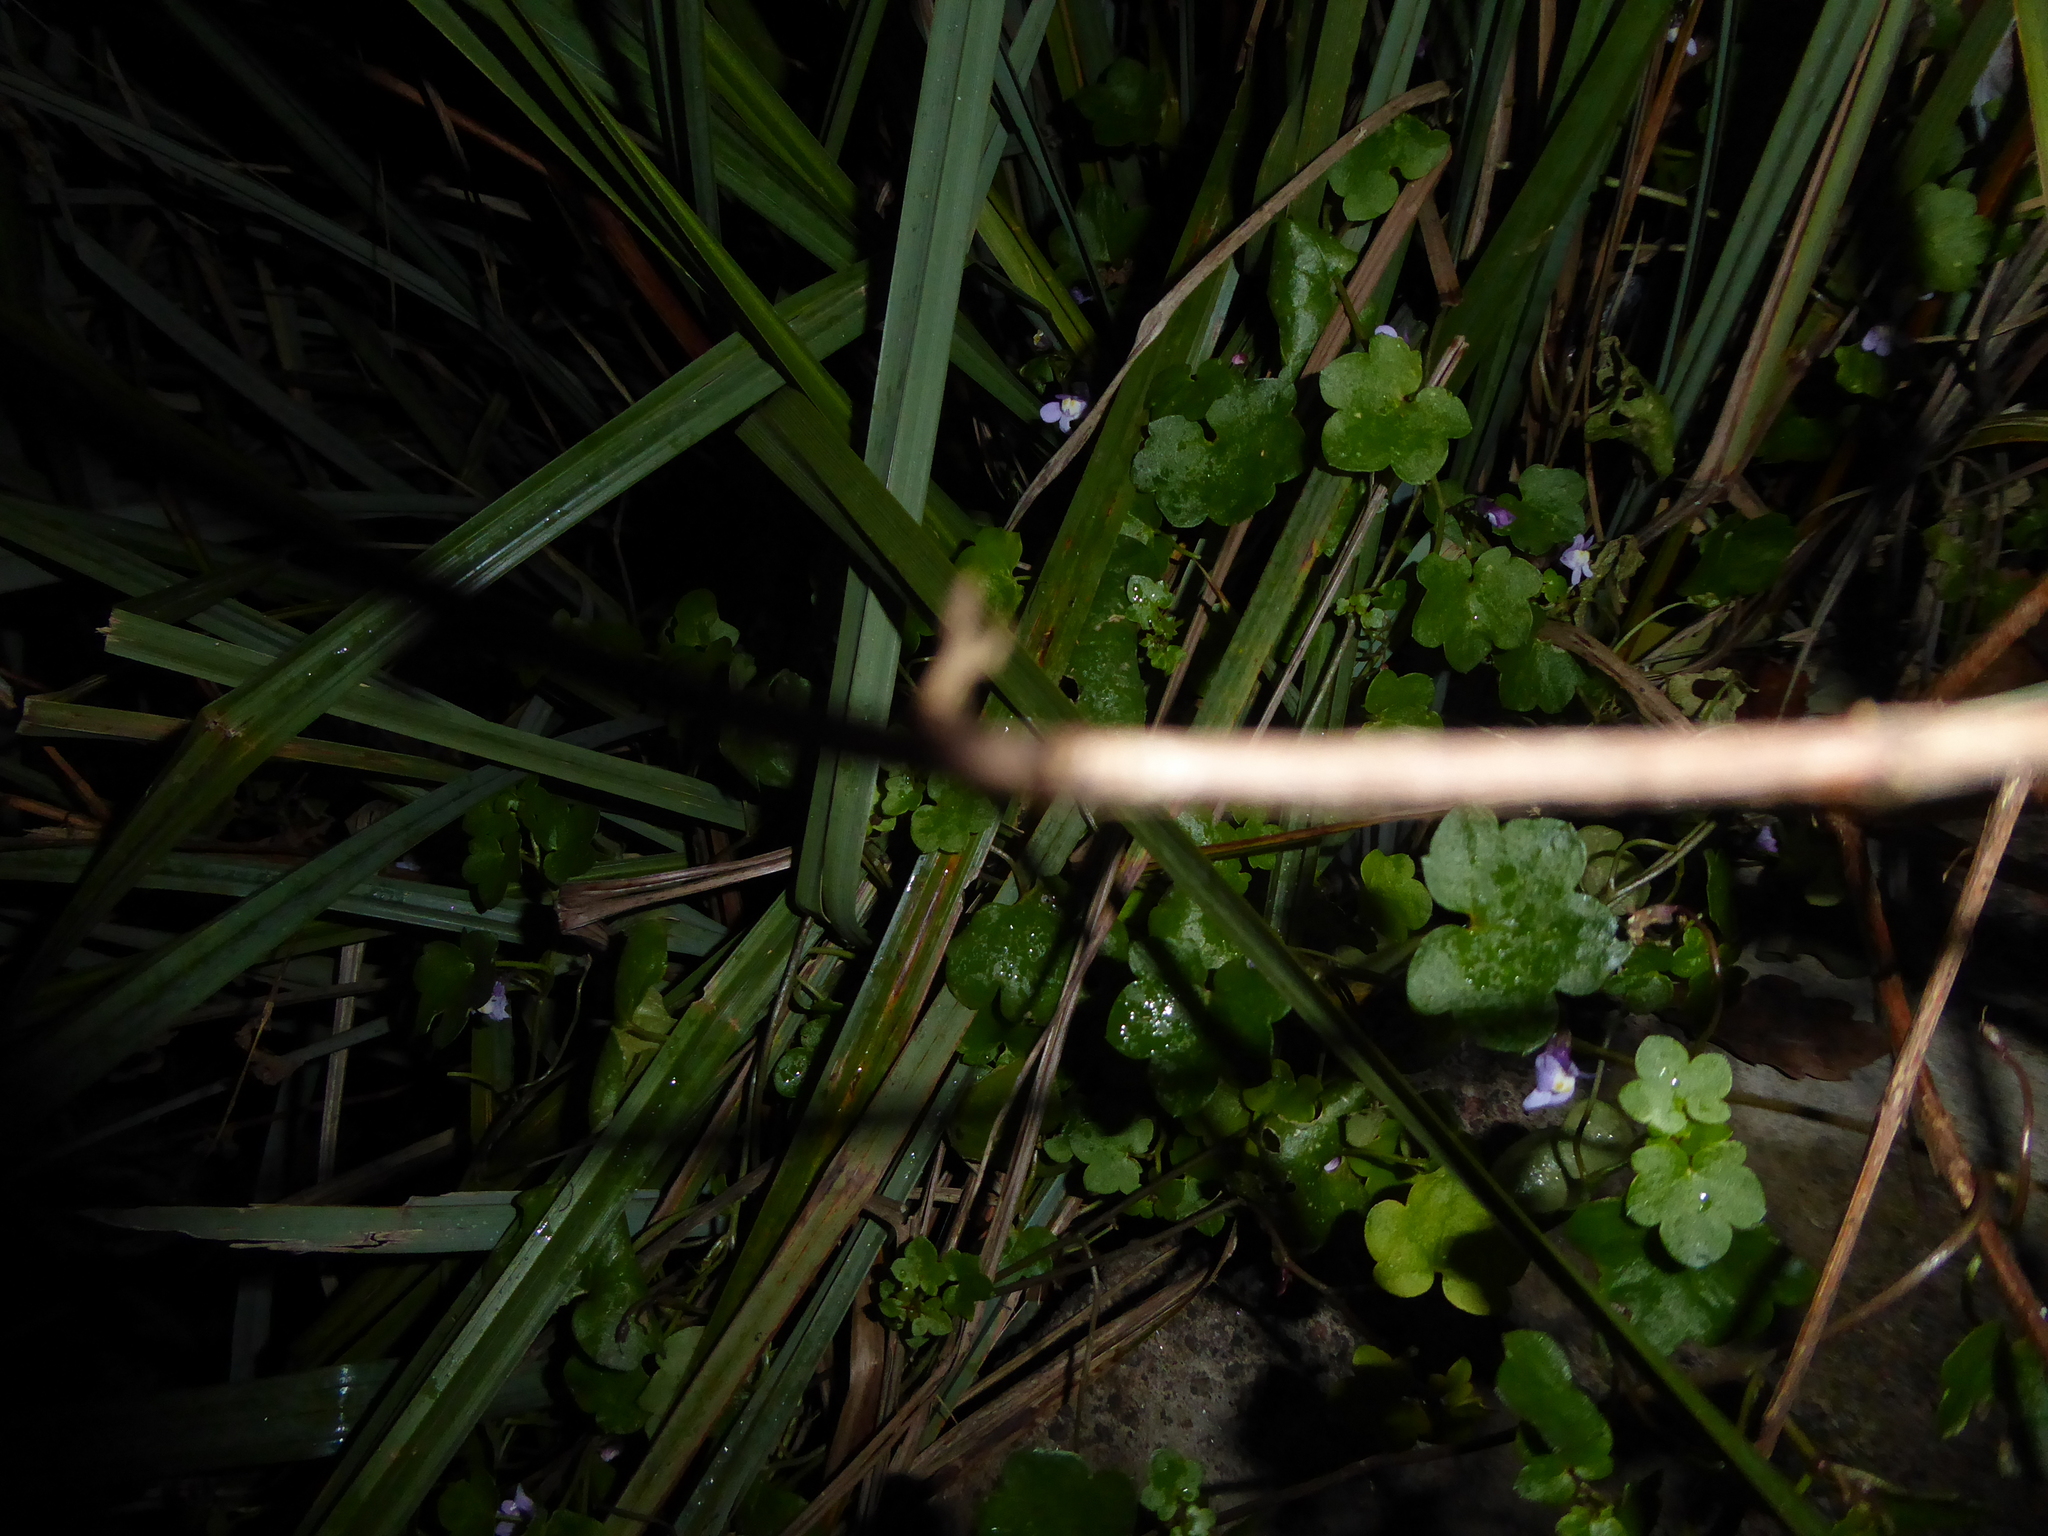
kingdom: Plantae
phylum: Tracheophyta
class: Magnoliopsida
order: Lamiales
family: Plantaginaceae
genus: Cymbalaria
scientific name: Cymbalaria muralis
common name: Ivy-leaved toadflax
